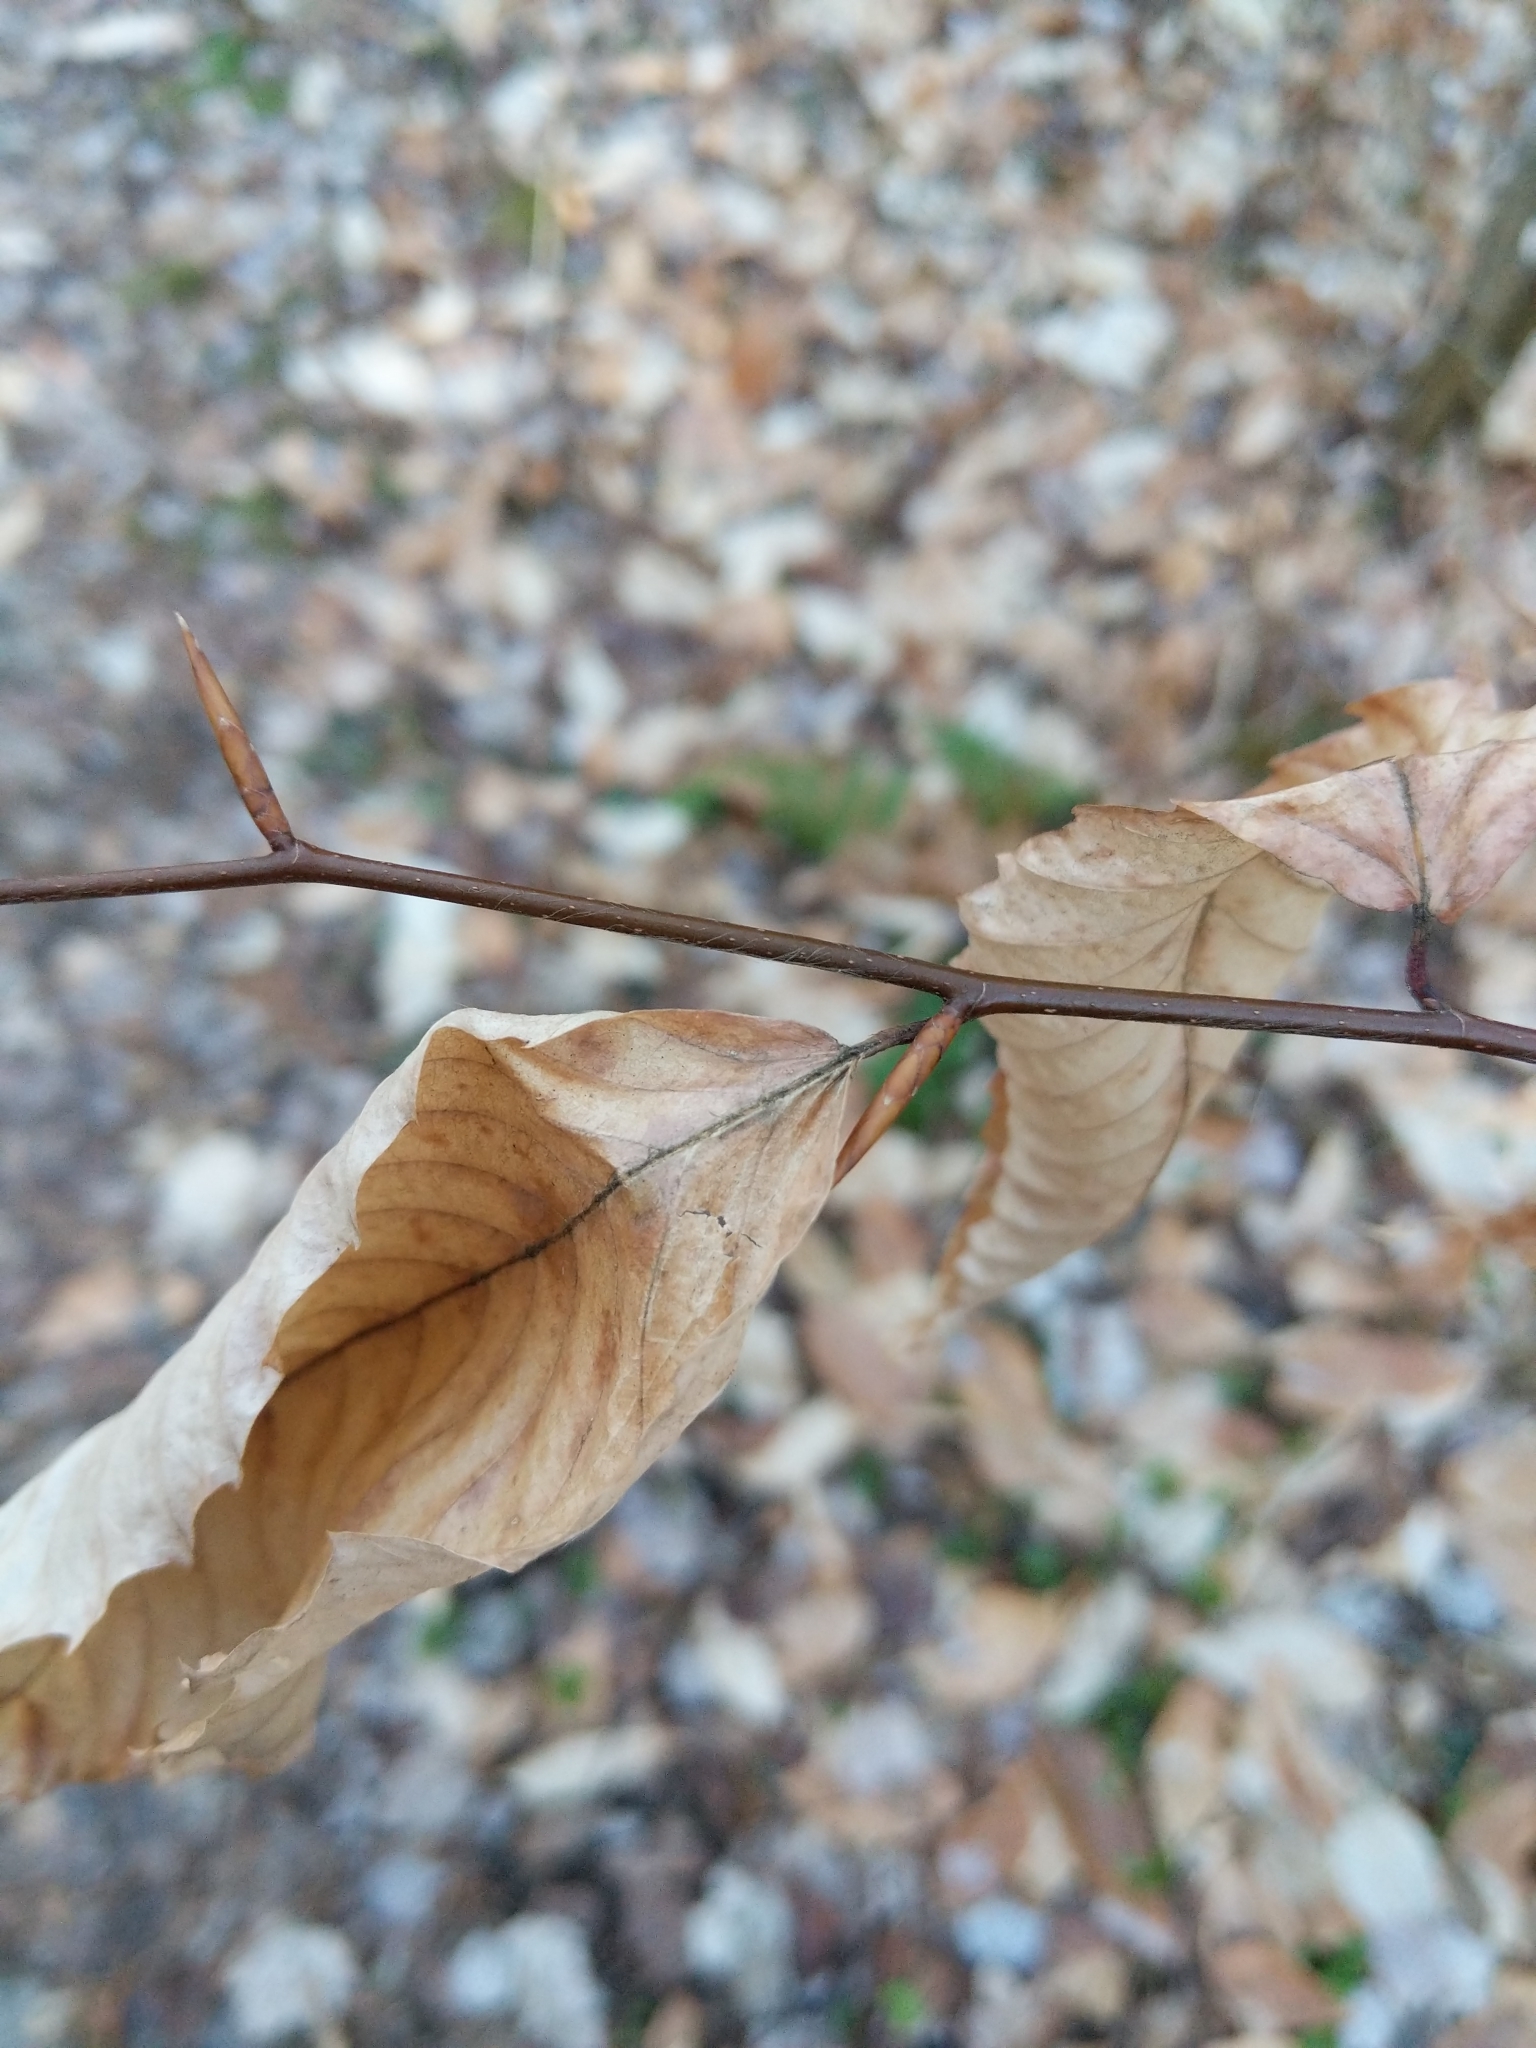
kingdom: Plantae
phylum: Tracheophyta
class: Magnoliopsida
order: Fagales
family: Fagaceae
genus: Fagus
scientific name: Fagus grandifolia
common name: American beech
